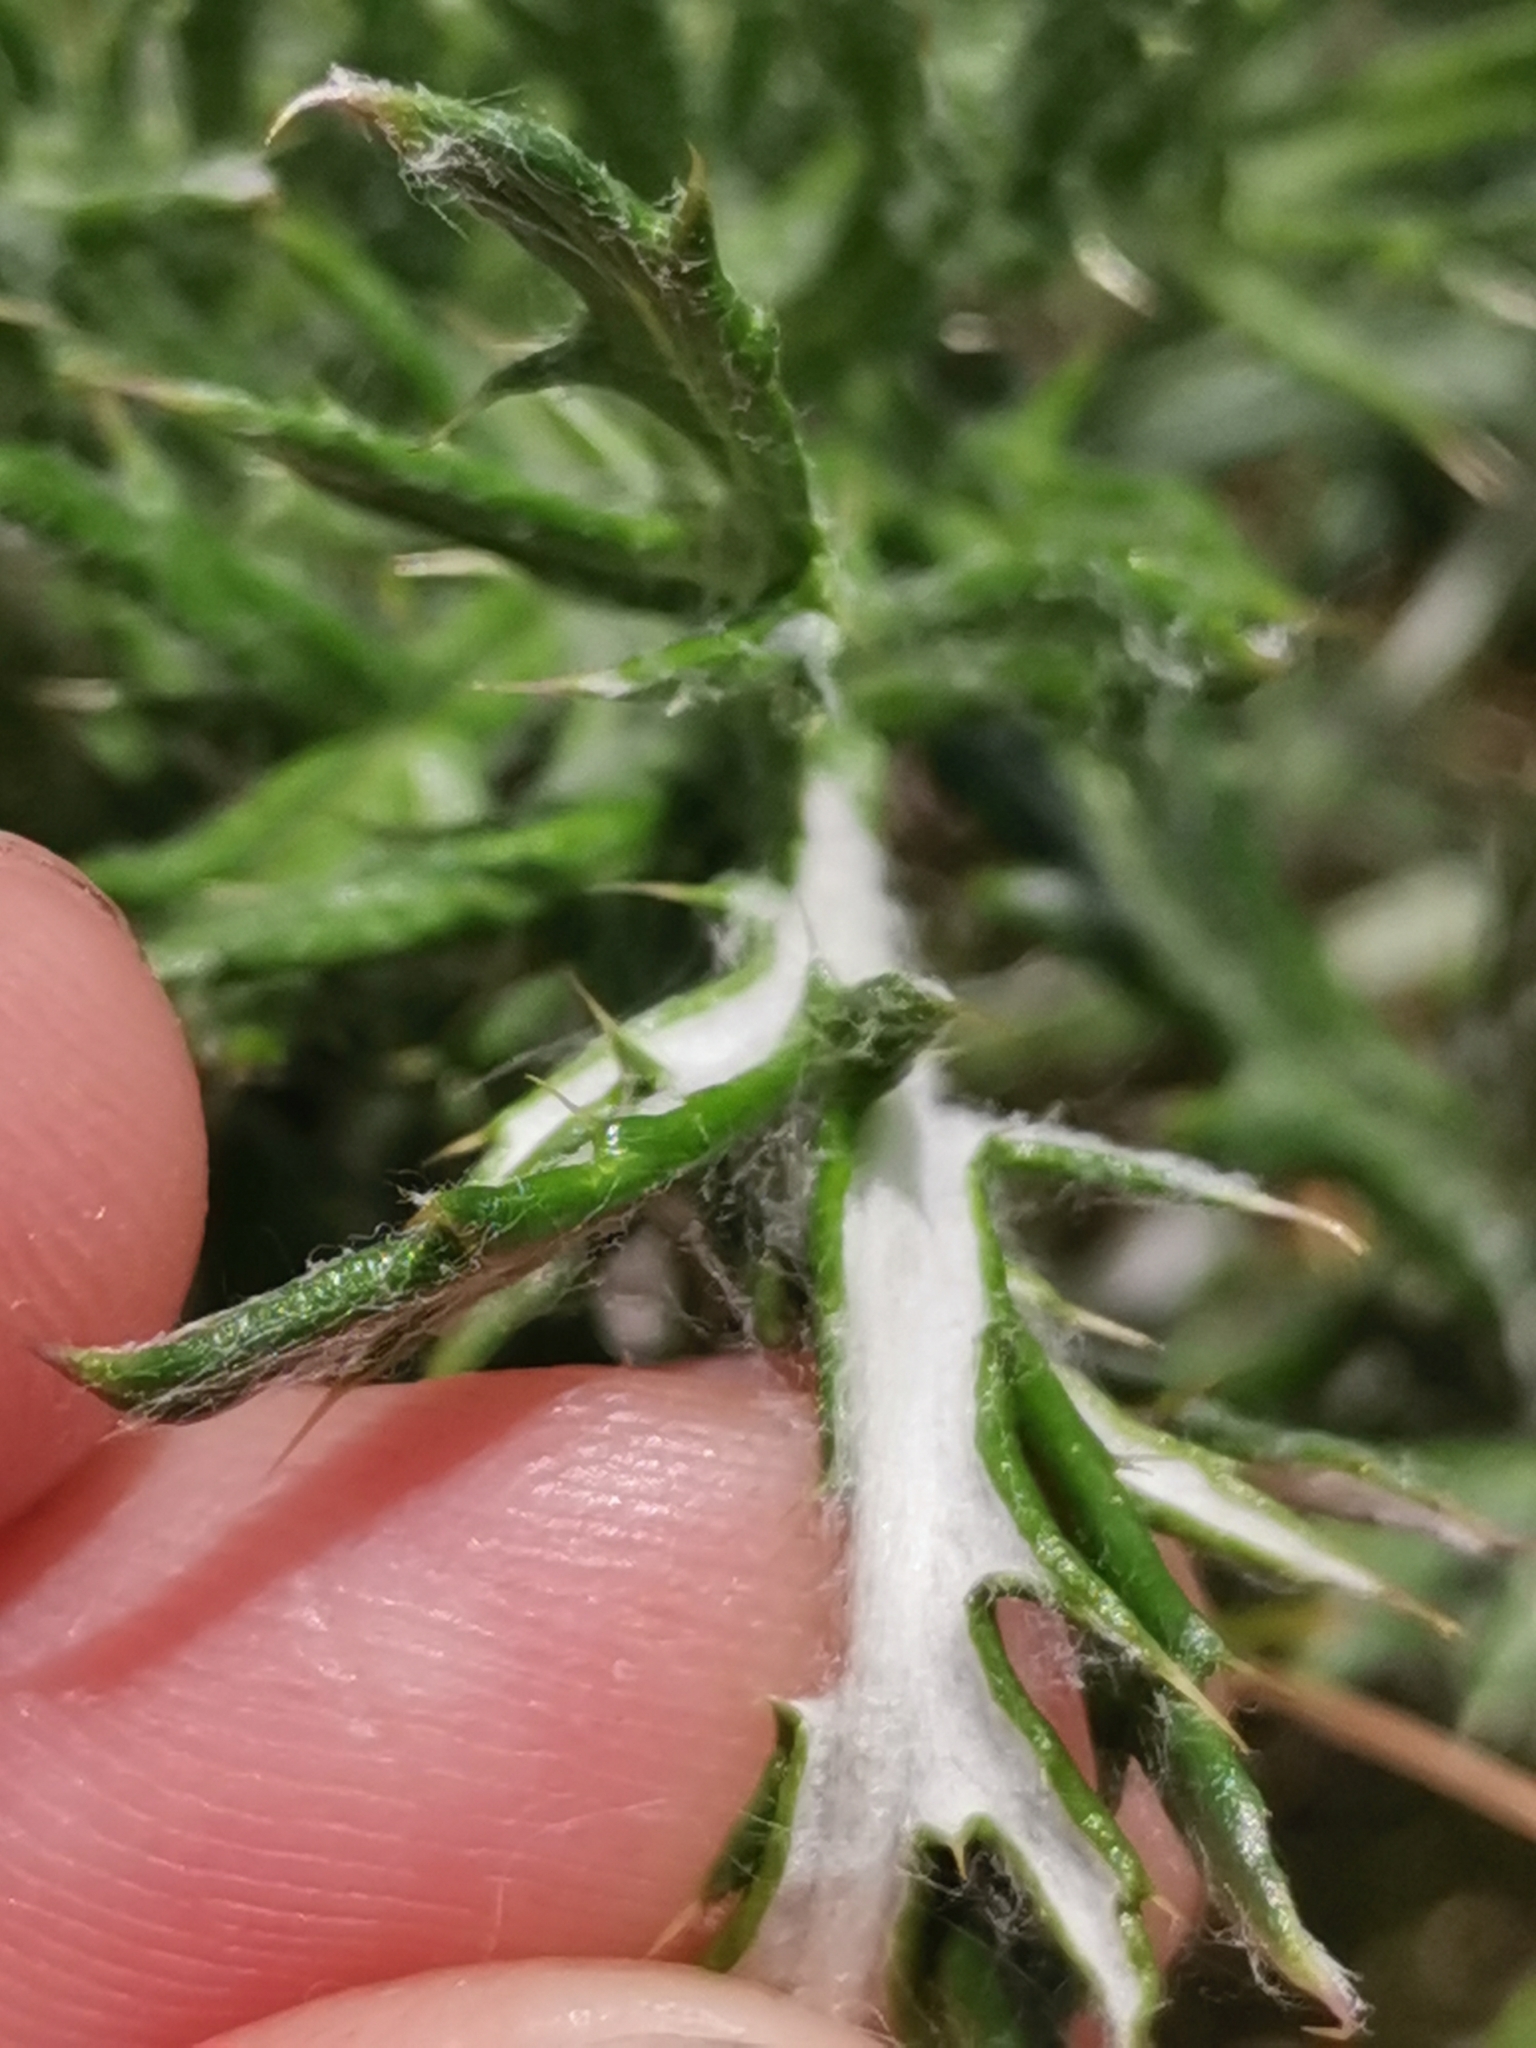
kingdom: Plantae
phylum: Tracheophyta
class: Magnoliopsida
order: Asterales
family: Asteraceae
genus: Echinops
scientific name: Echinops ritro
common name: Globe thistle
